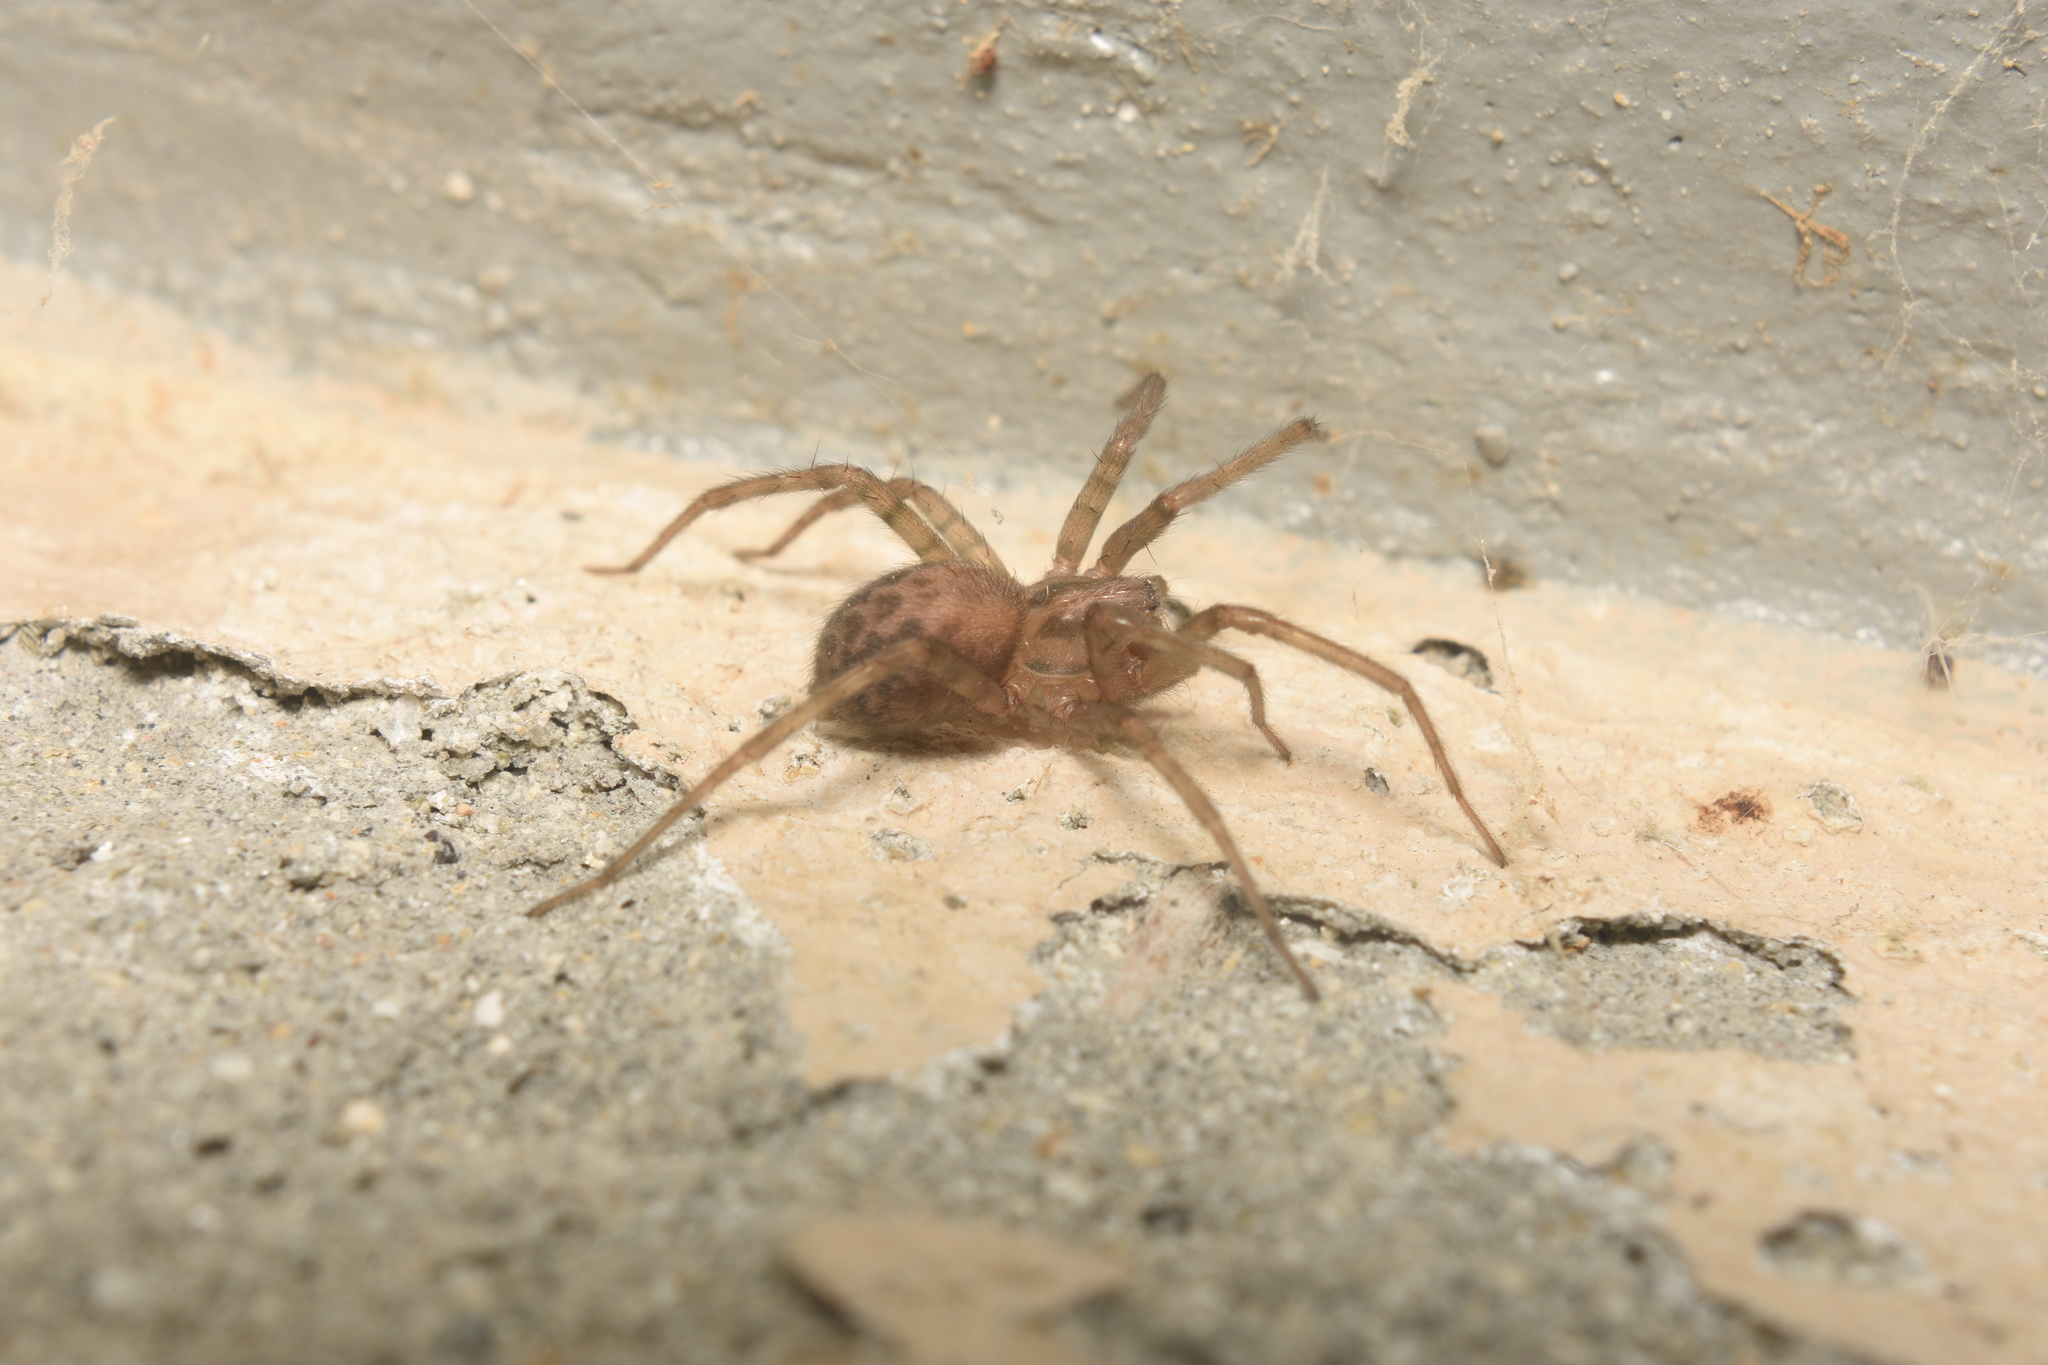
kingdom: Animalia
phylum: Arthropoda
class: Arachnida
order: Araneae
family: Agelenidae
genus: Tegenaria
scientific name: Tegenaria domestica
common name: Barn funnel weaver
